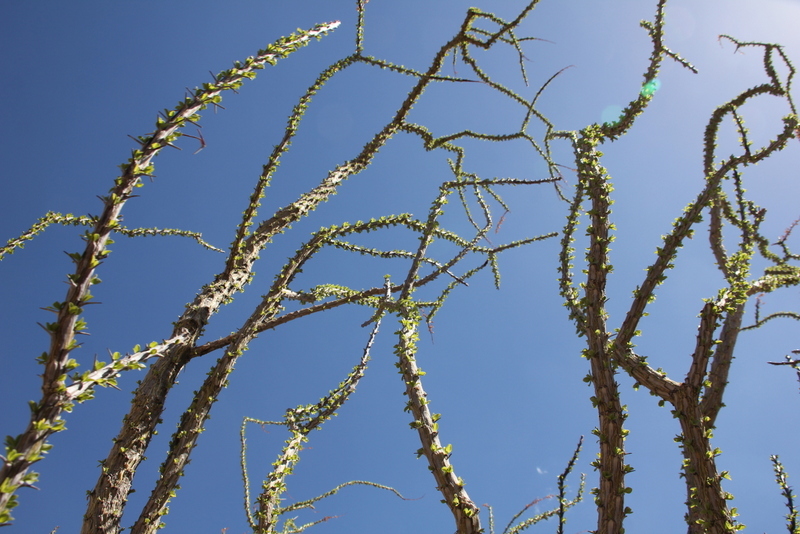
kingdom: Plantae
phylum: Tracheophyta
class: Magnoliopsida
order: Ericales
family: Fouquieriaceae
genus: Fouquieria
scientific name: Fouquieria splendens
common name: Vine-cactus
